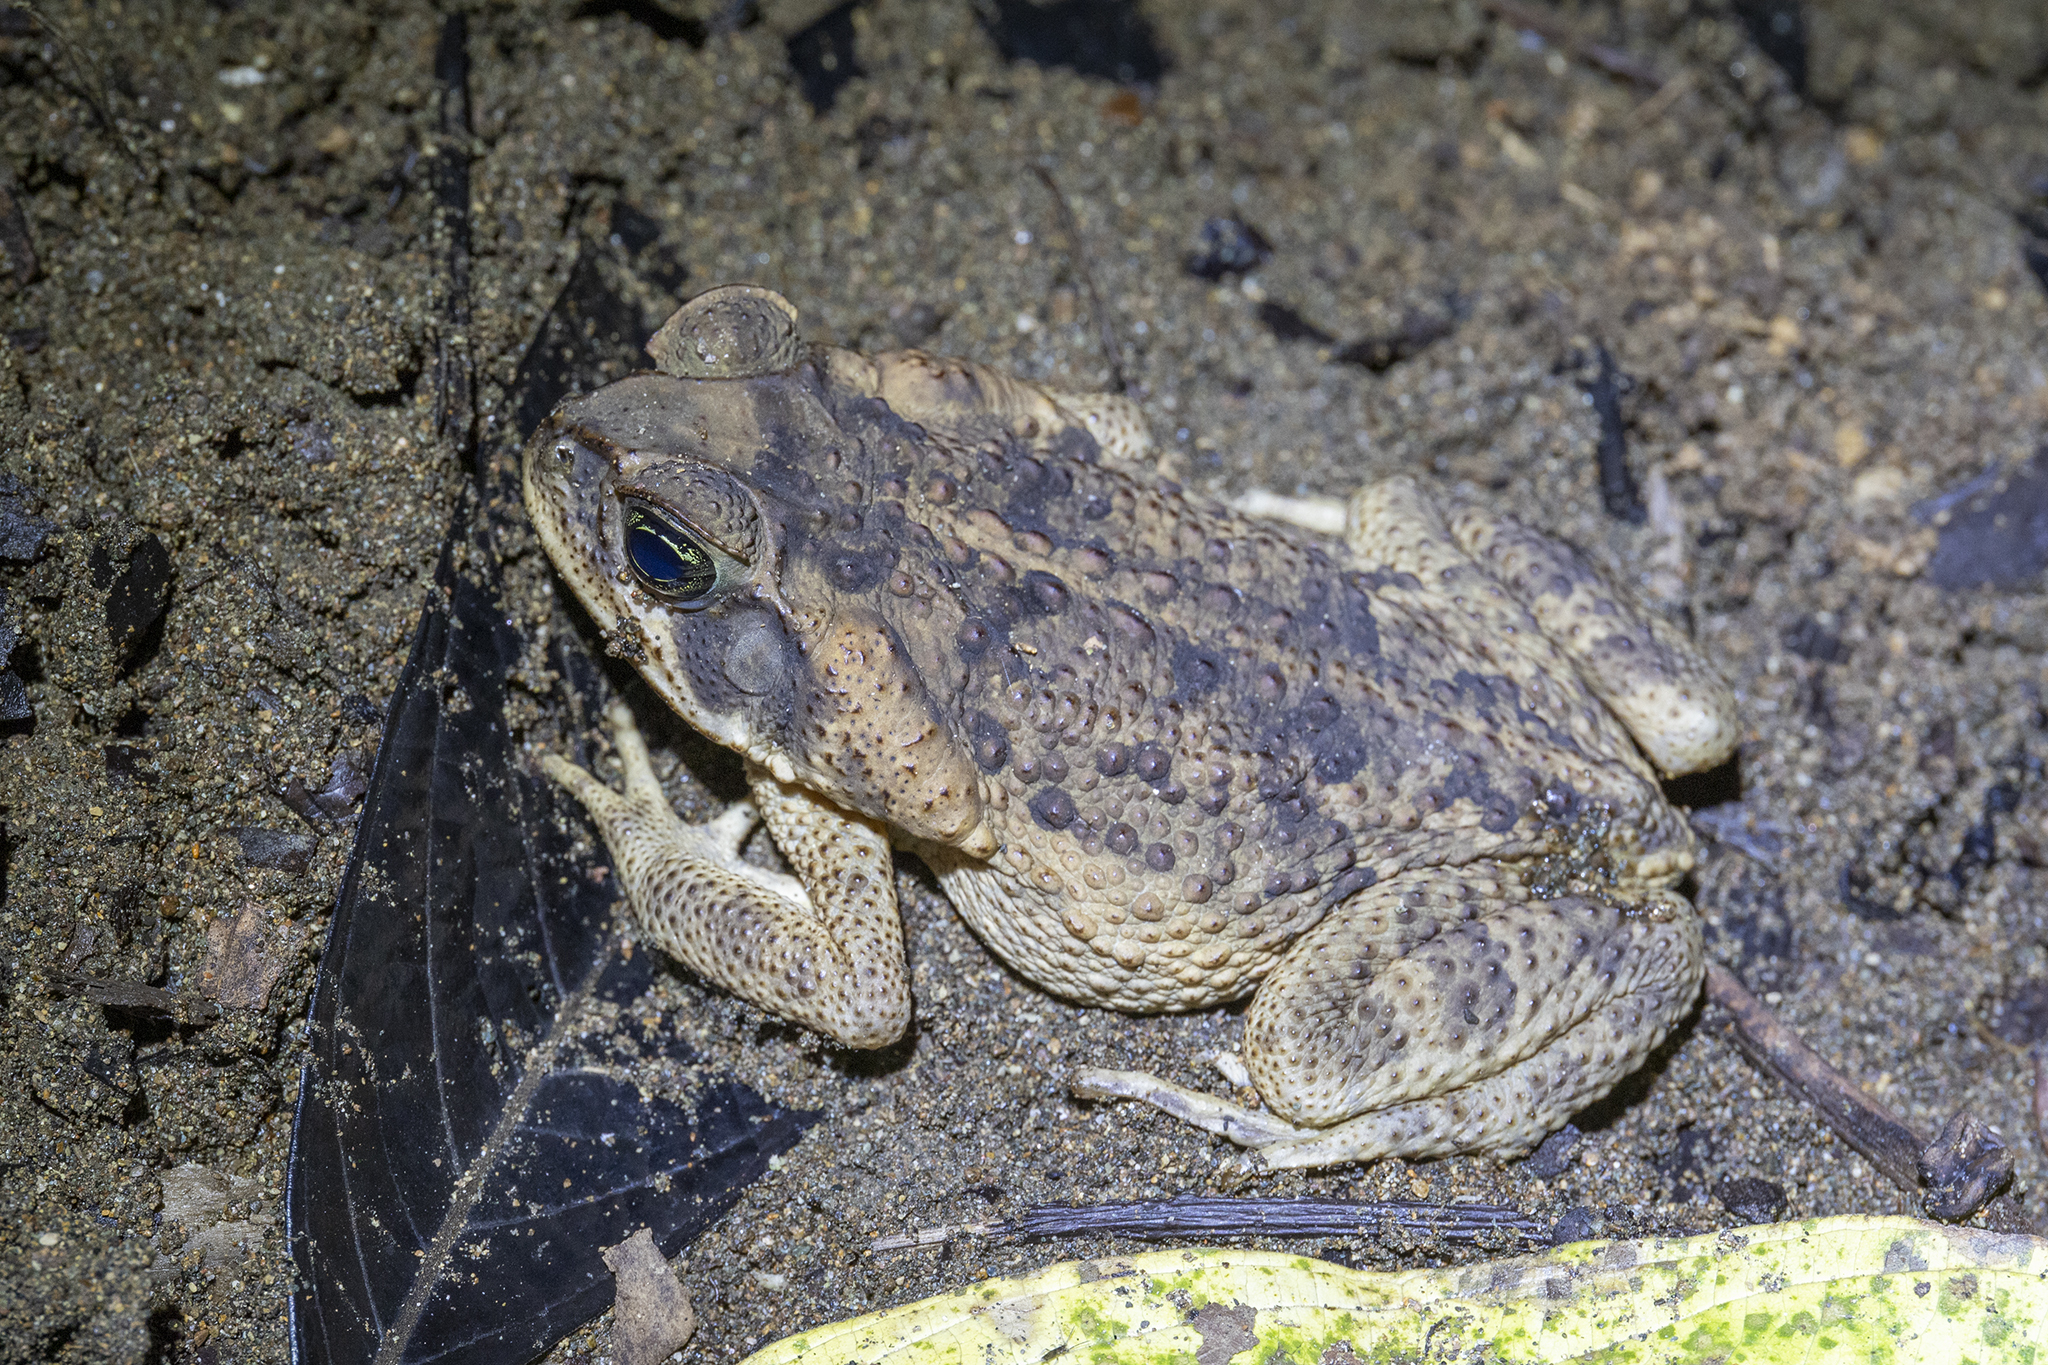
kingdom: Animalia
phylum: Chordata
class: Amphibia
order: Anura
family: Bufonidae
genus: Rhinella
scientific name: Rhinella horribilis
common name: Mesoamerican cane toad
